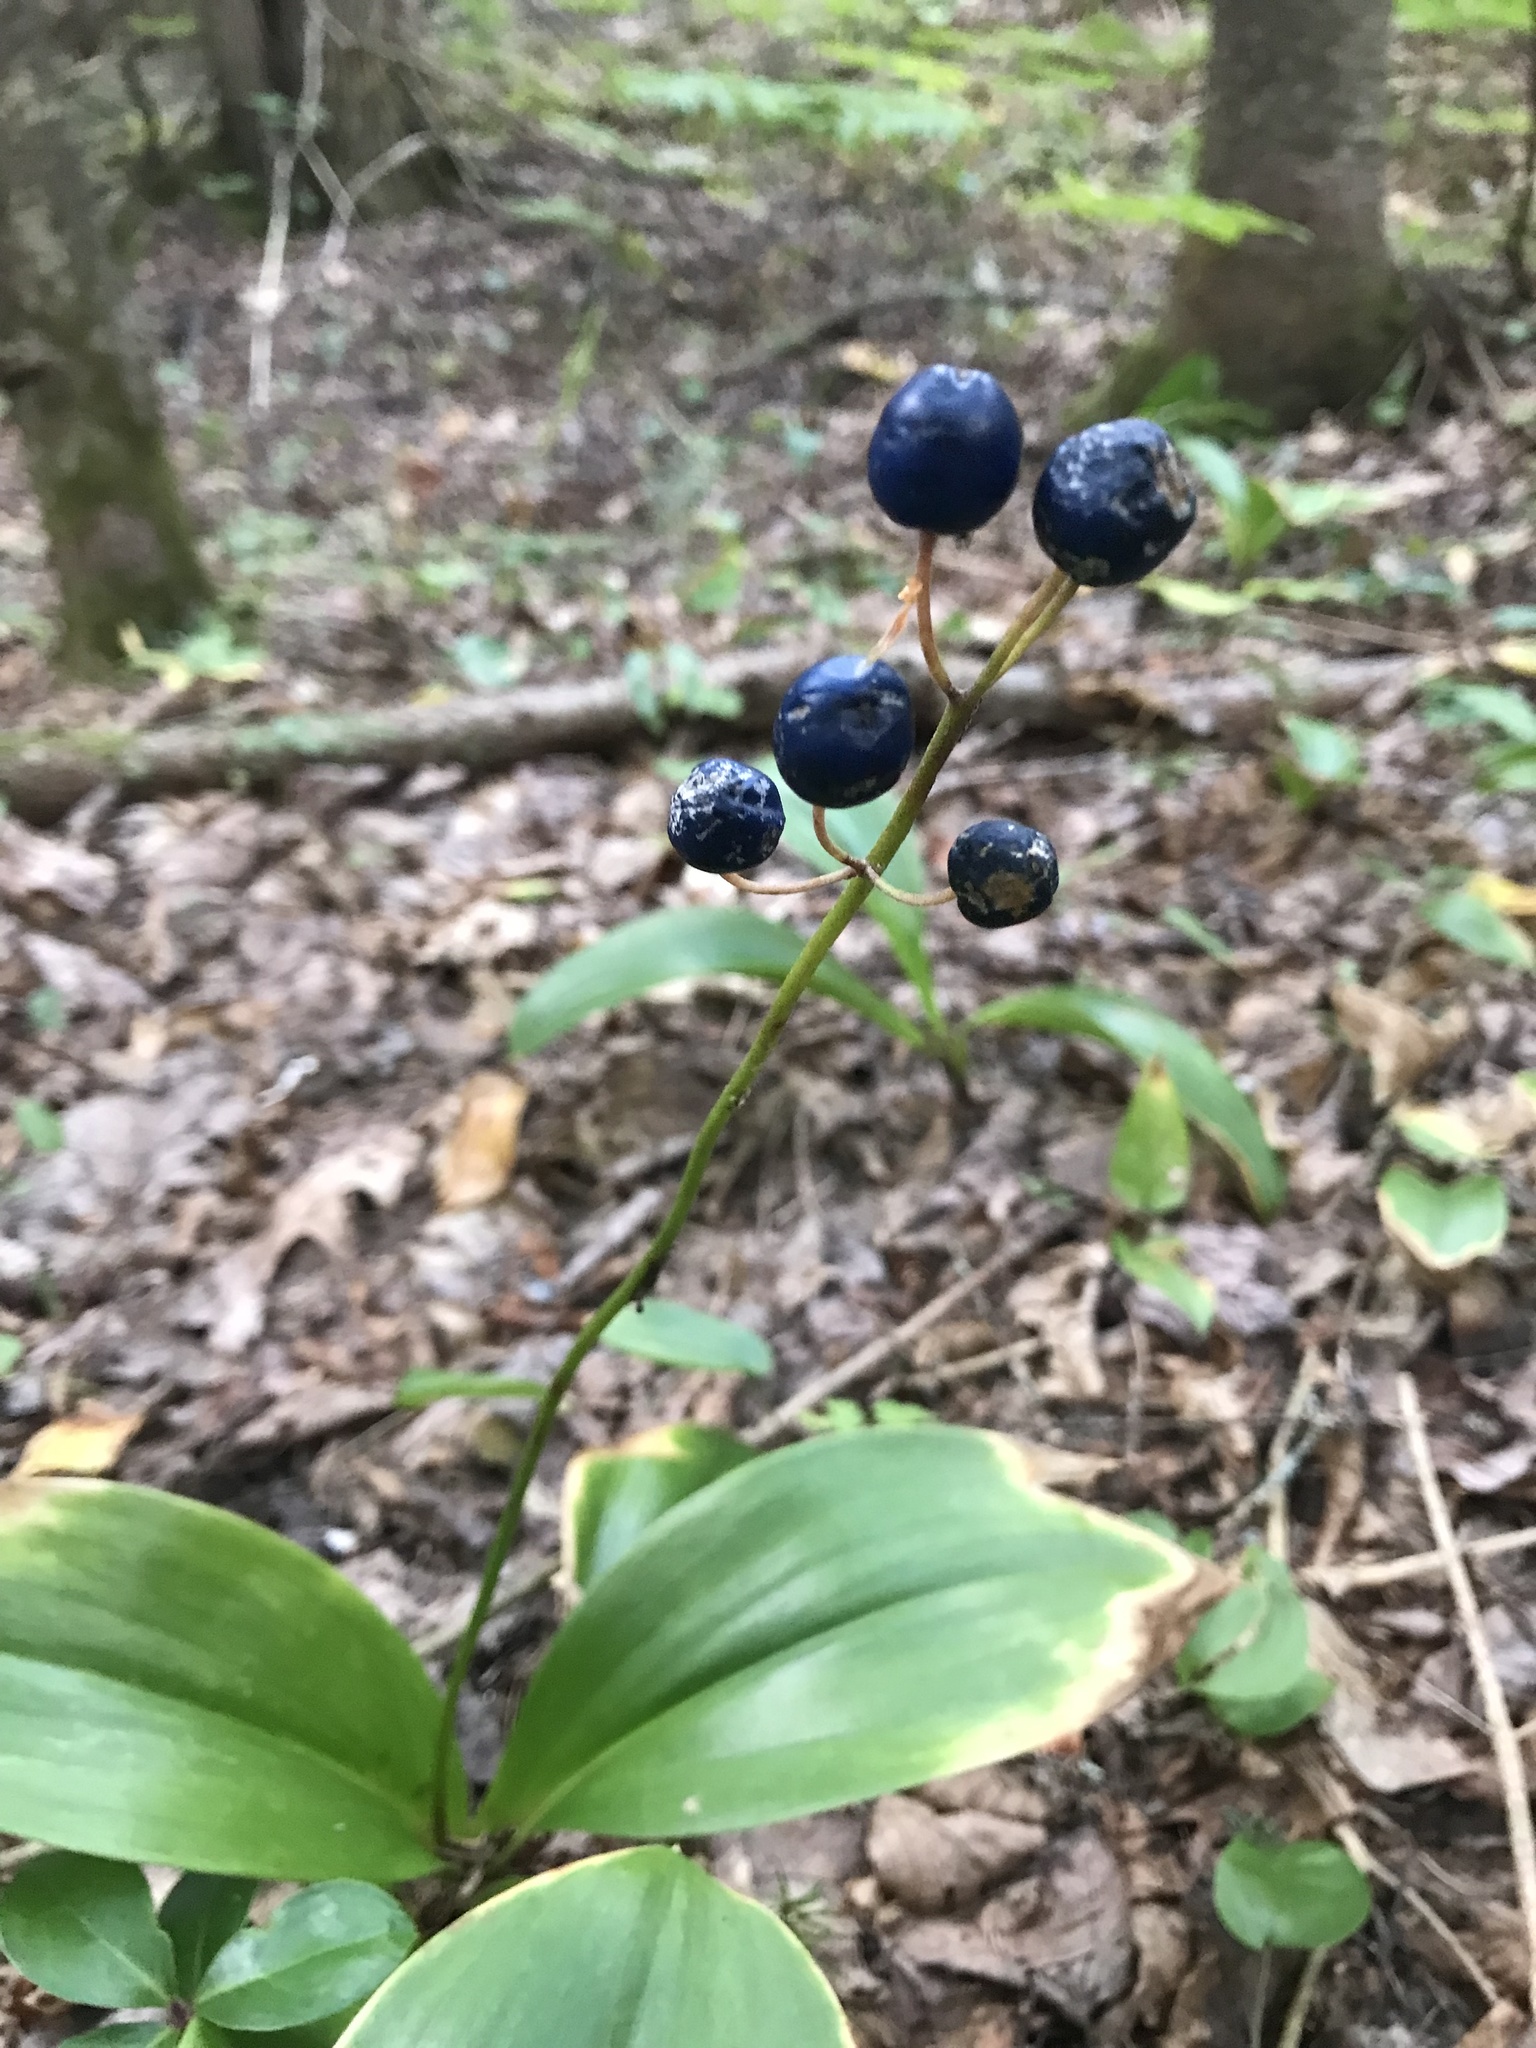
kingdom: Plantae
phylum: Tracheophyta
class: Liliopsida
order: Liliales
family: Liliaceae
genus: Clintonia
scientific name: Clintonia borealis
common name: Yellow clintonia
